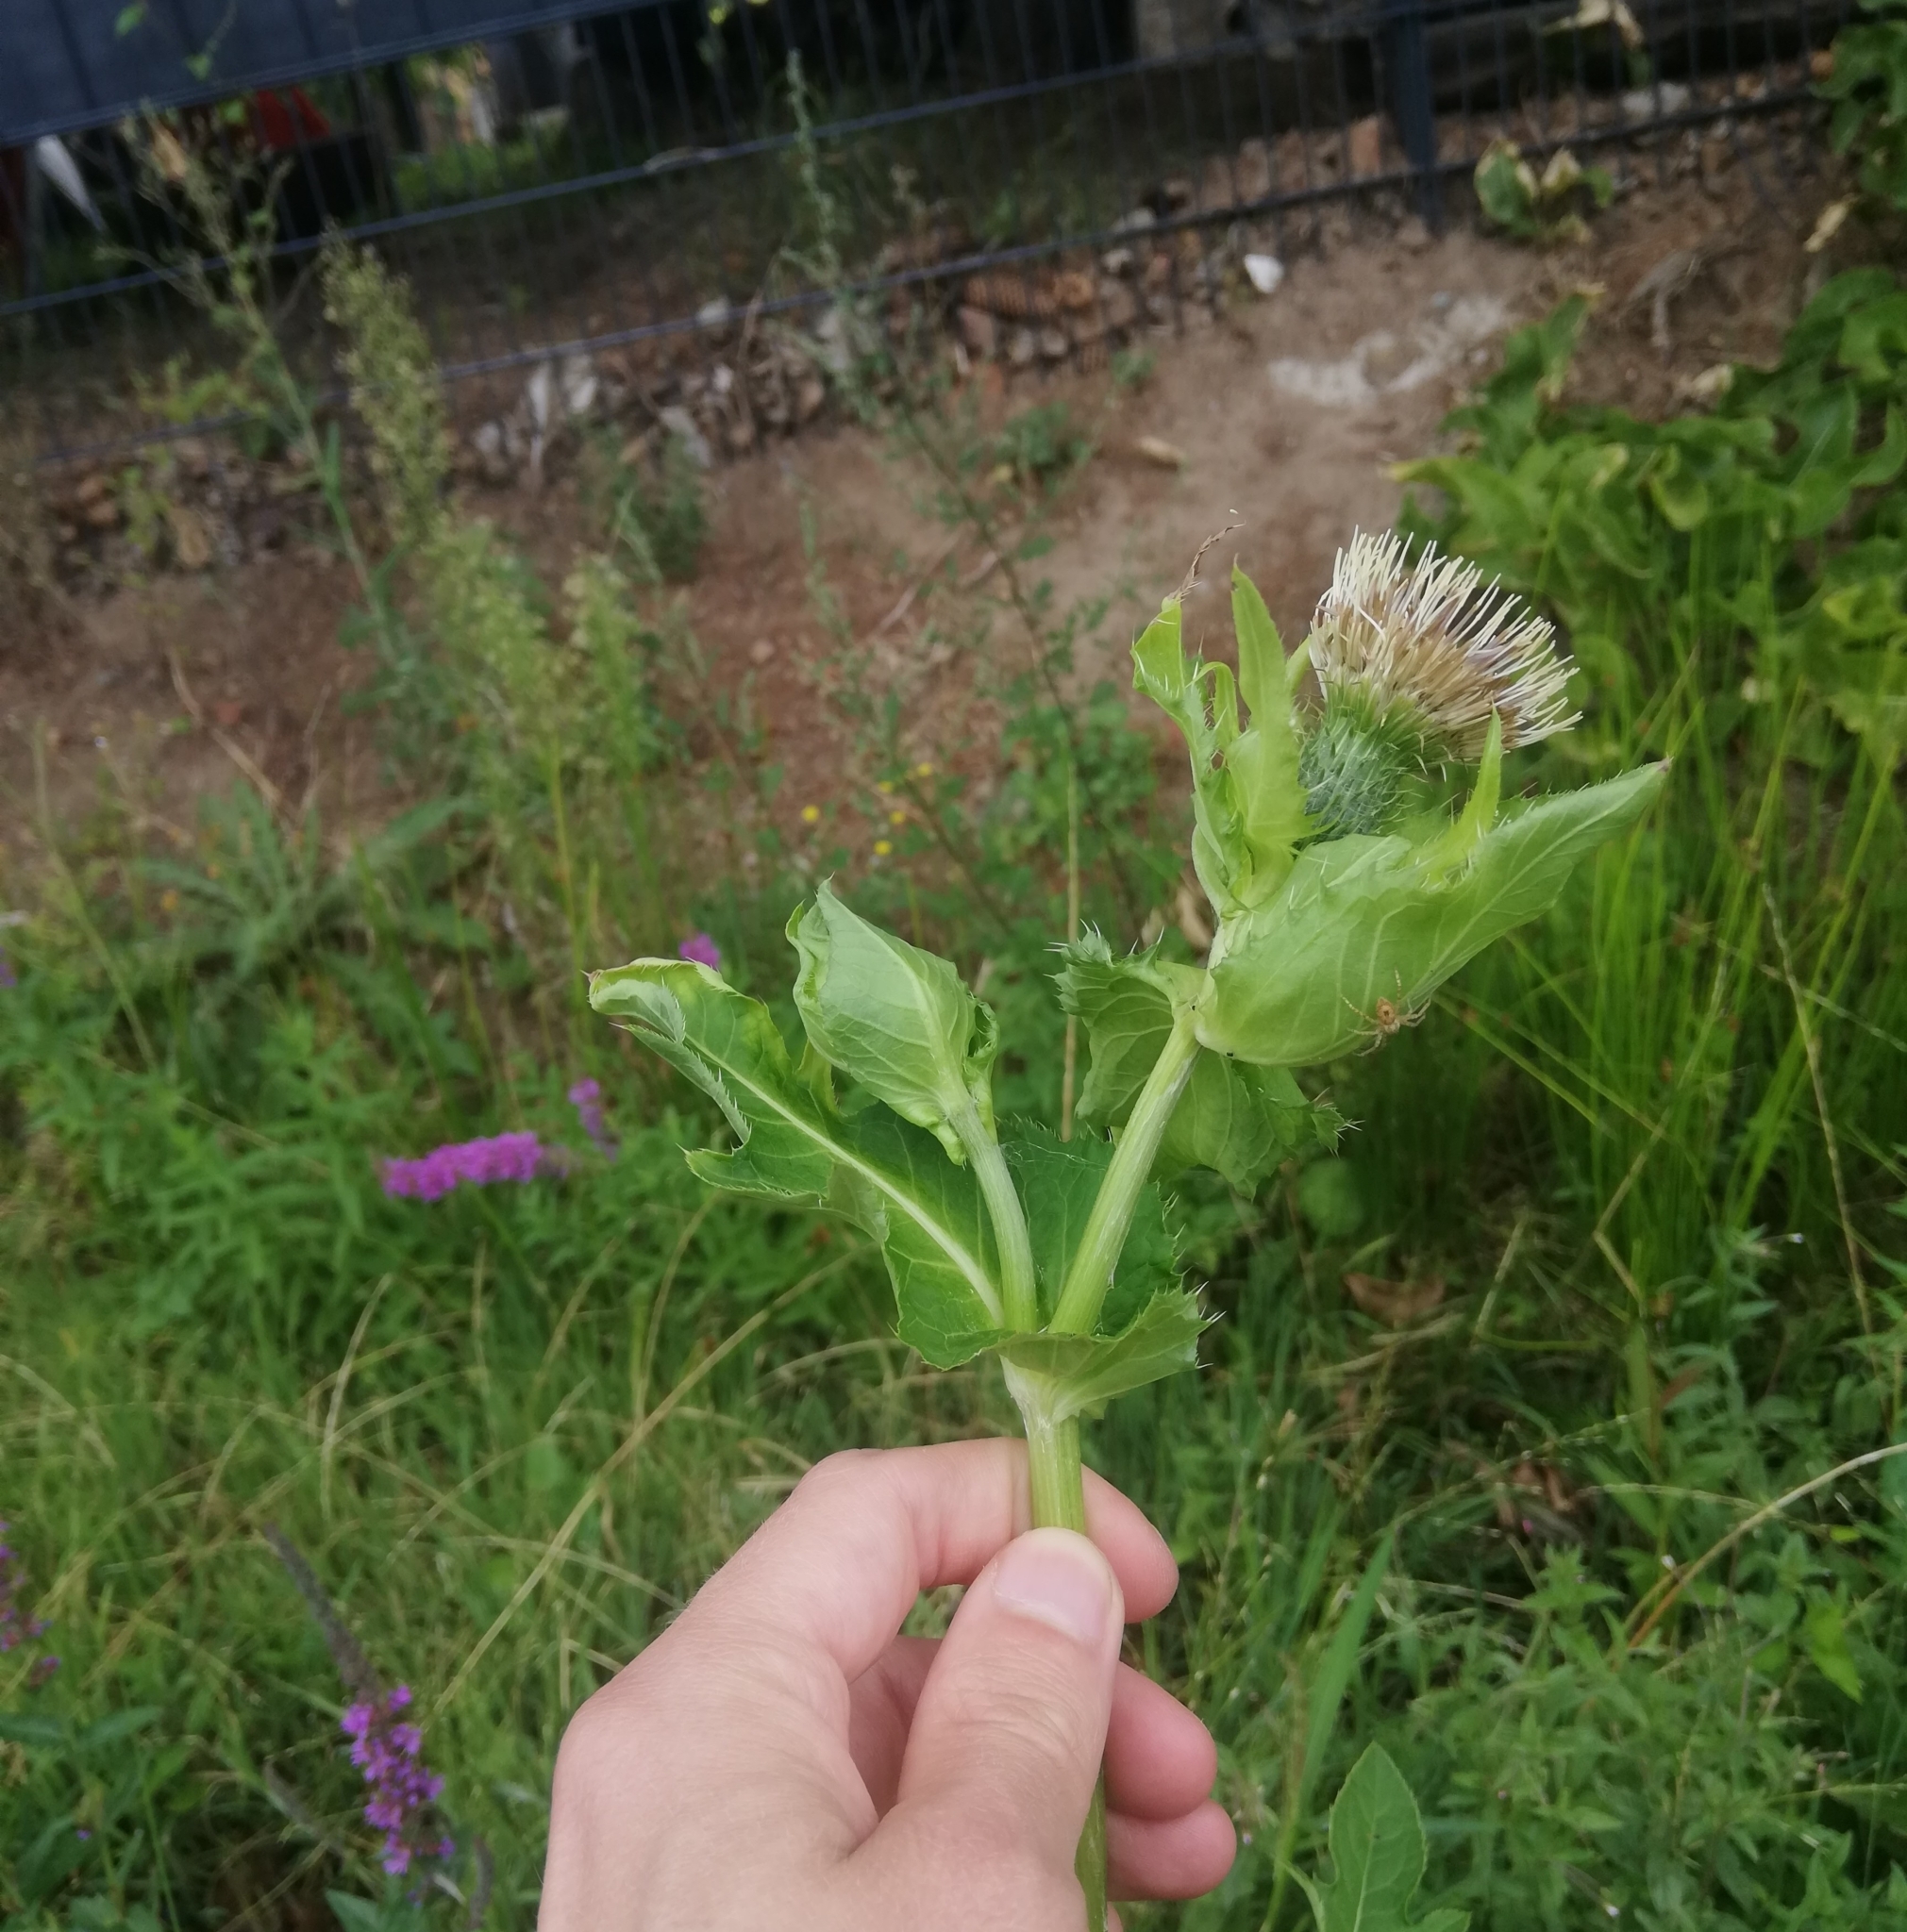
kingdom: Plantae
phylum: Tracheophyta
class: Magnoliopsida
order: Asterales
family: Asteraceae
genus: Cirsium
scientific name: Cirsium oleraceum
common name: Cabbage thistle
